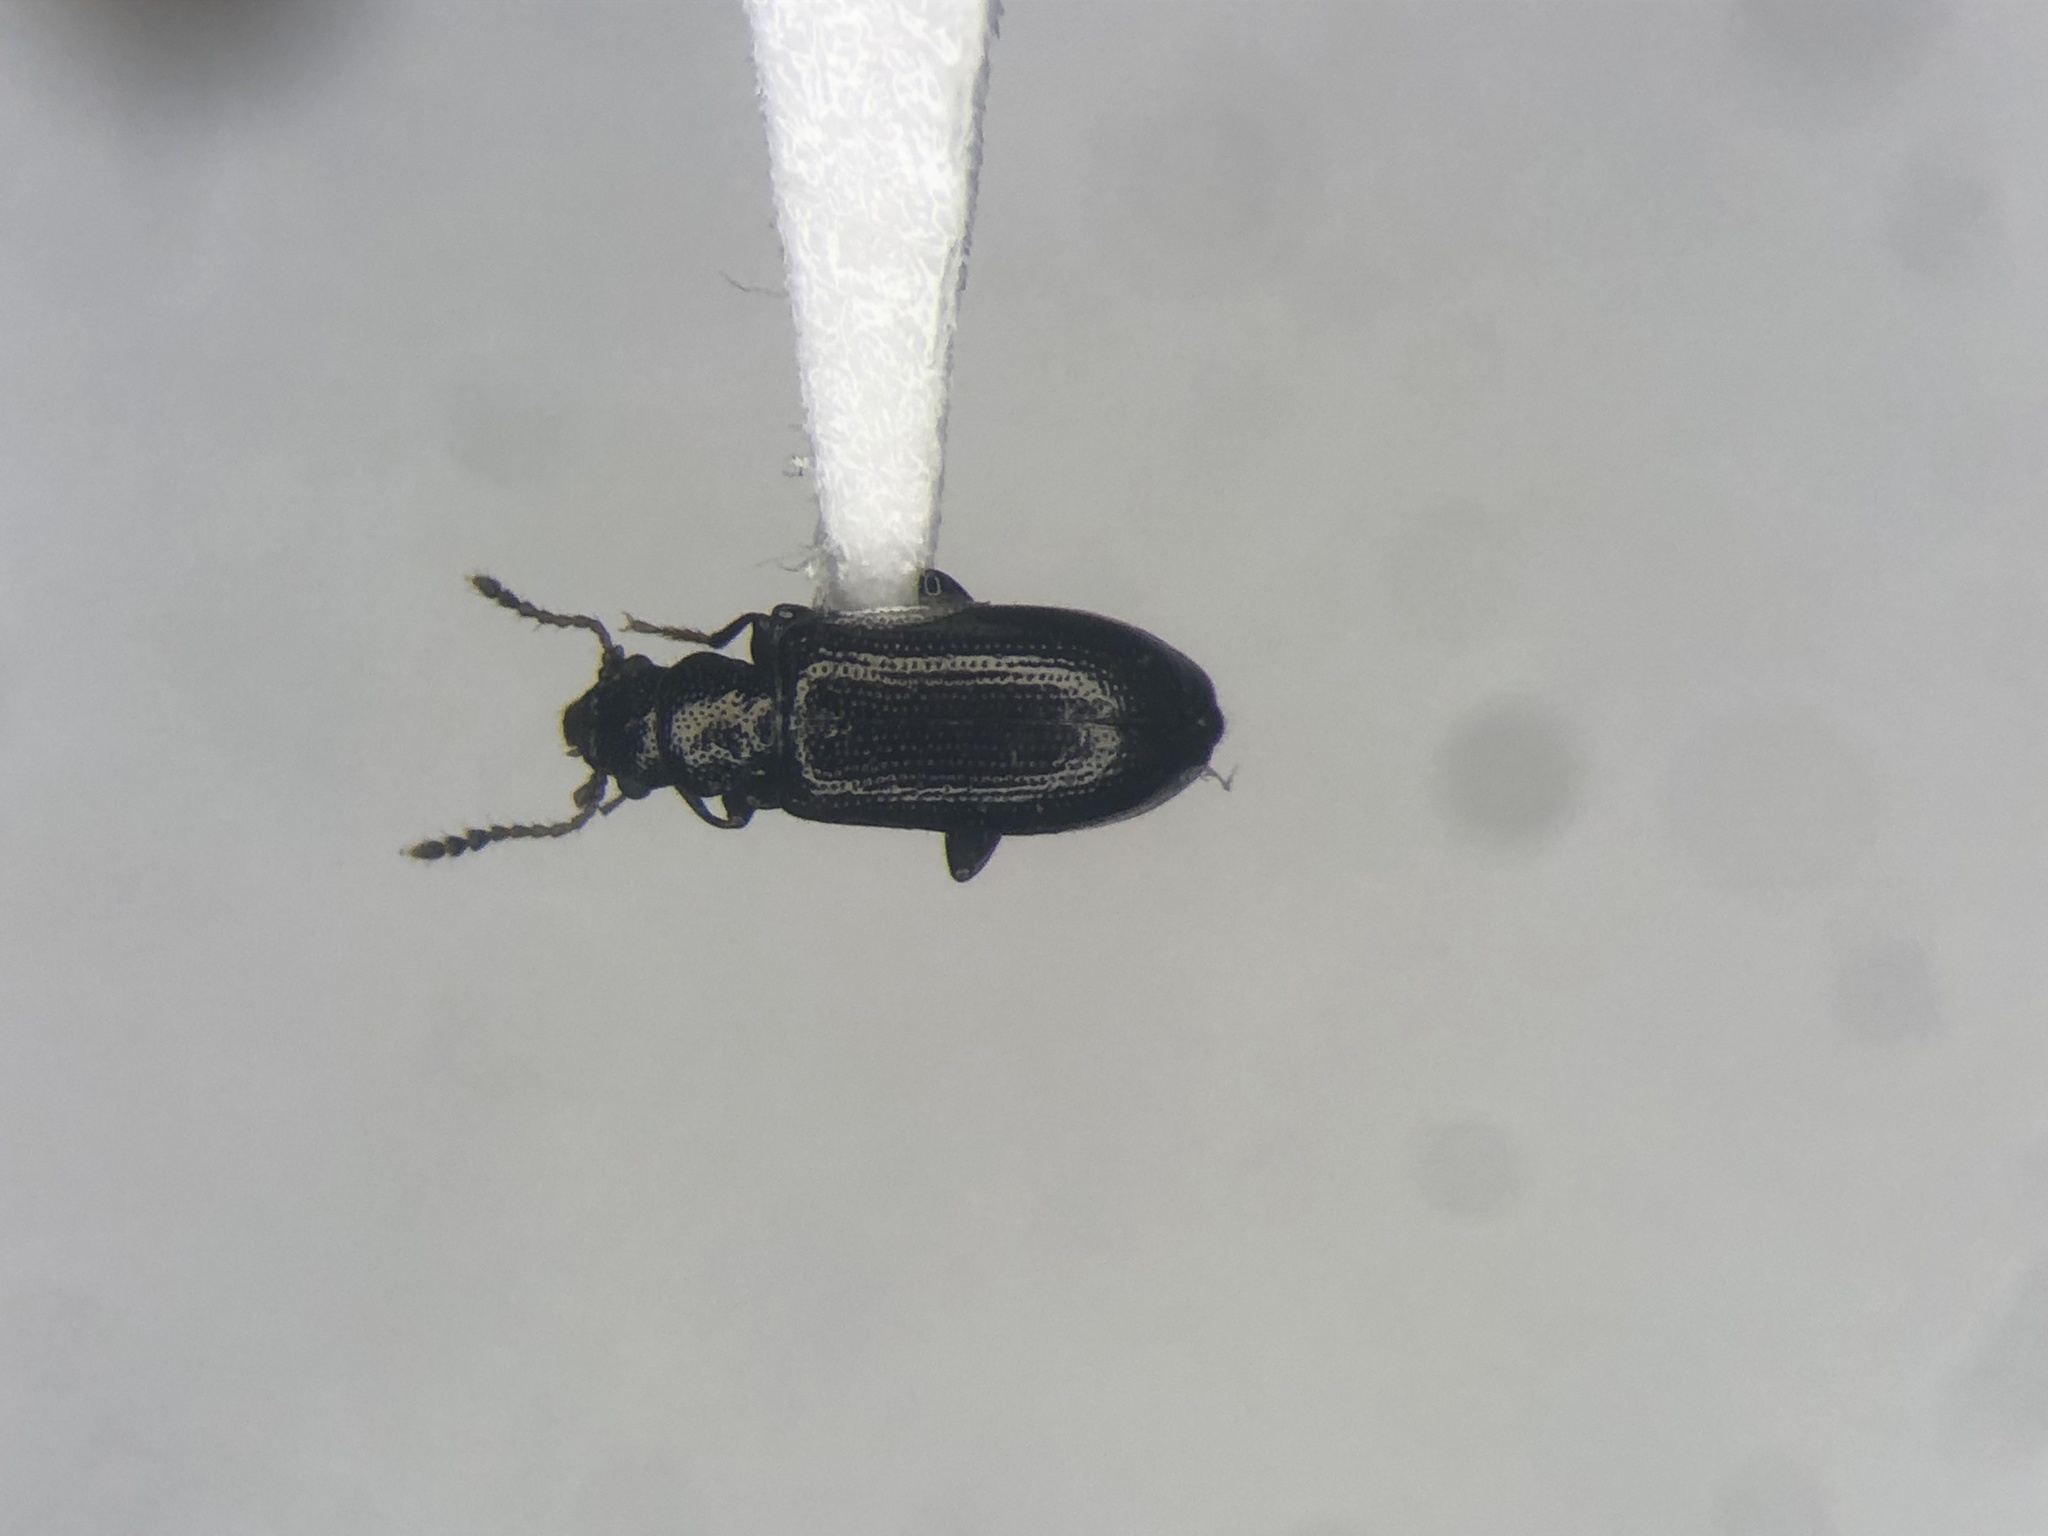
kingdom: Animalia
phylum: Arthropoda
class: Insecta
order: Coleoptera
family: Salpingidae
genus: Sphaeriestes
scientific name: Sphaeriestes virescens
